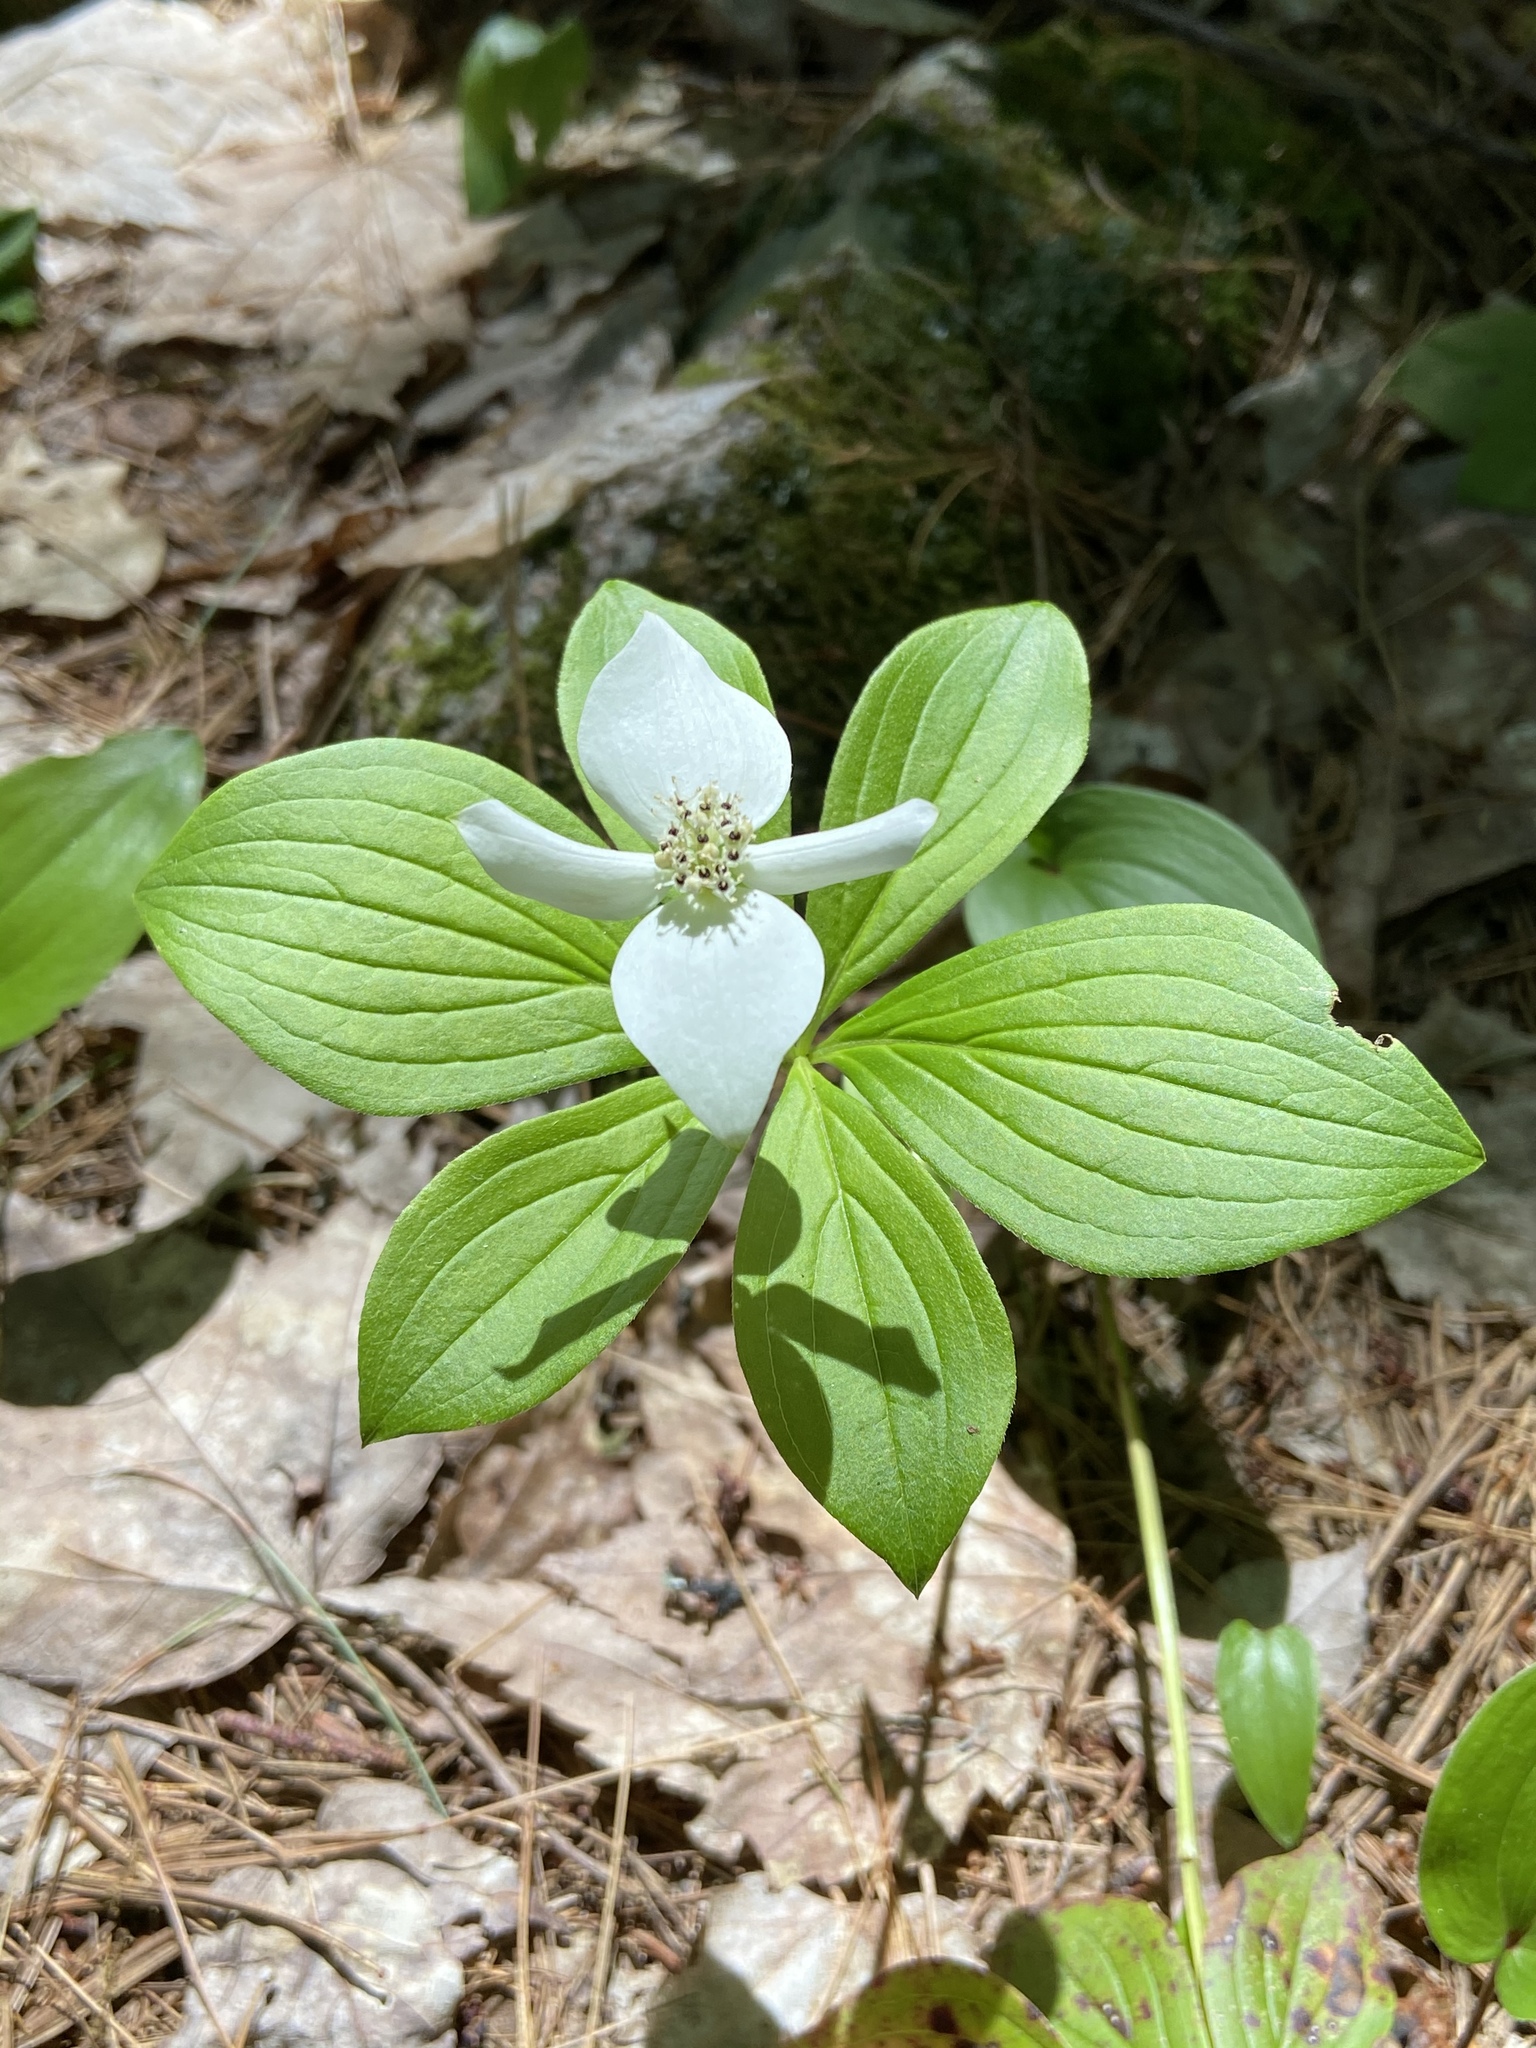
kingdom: Plantae
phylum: Tracheophyta
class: Magnoliopsida
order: Cornales
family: Cornaceae
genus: Cornus
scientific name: Cornus canadensis
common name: Creeping dogwood
